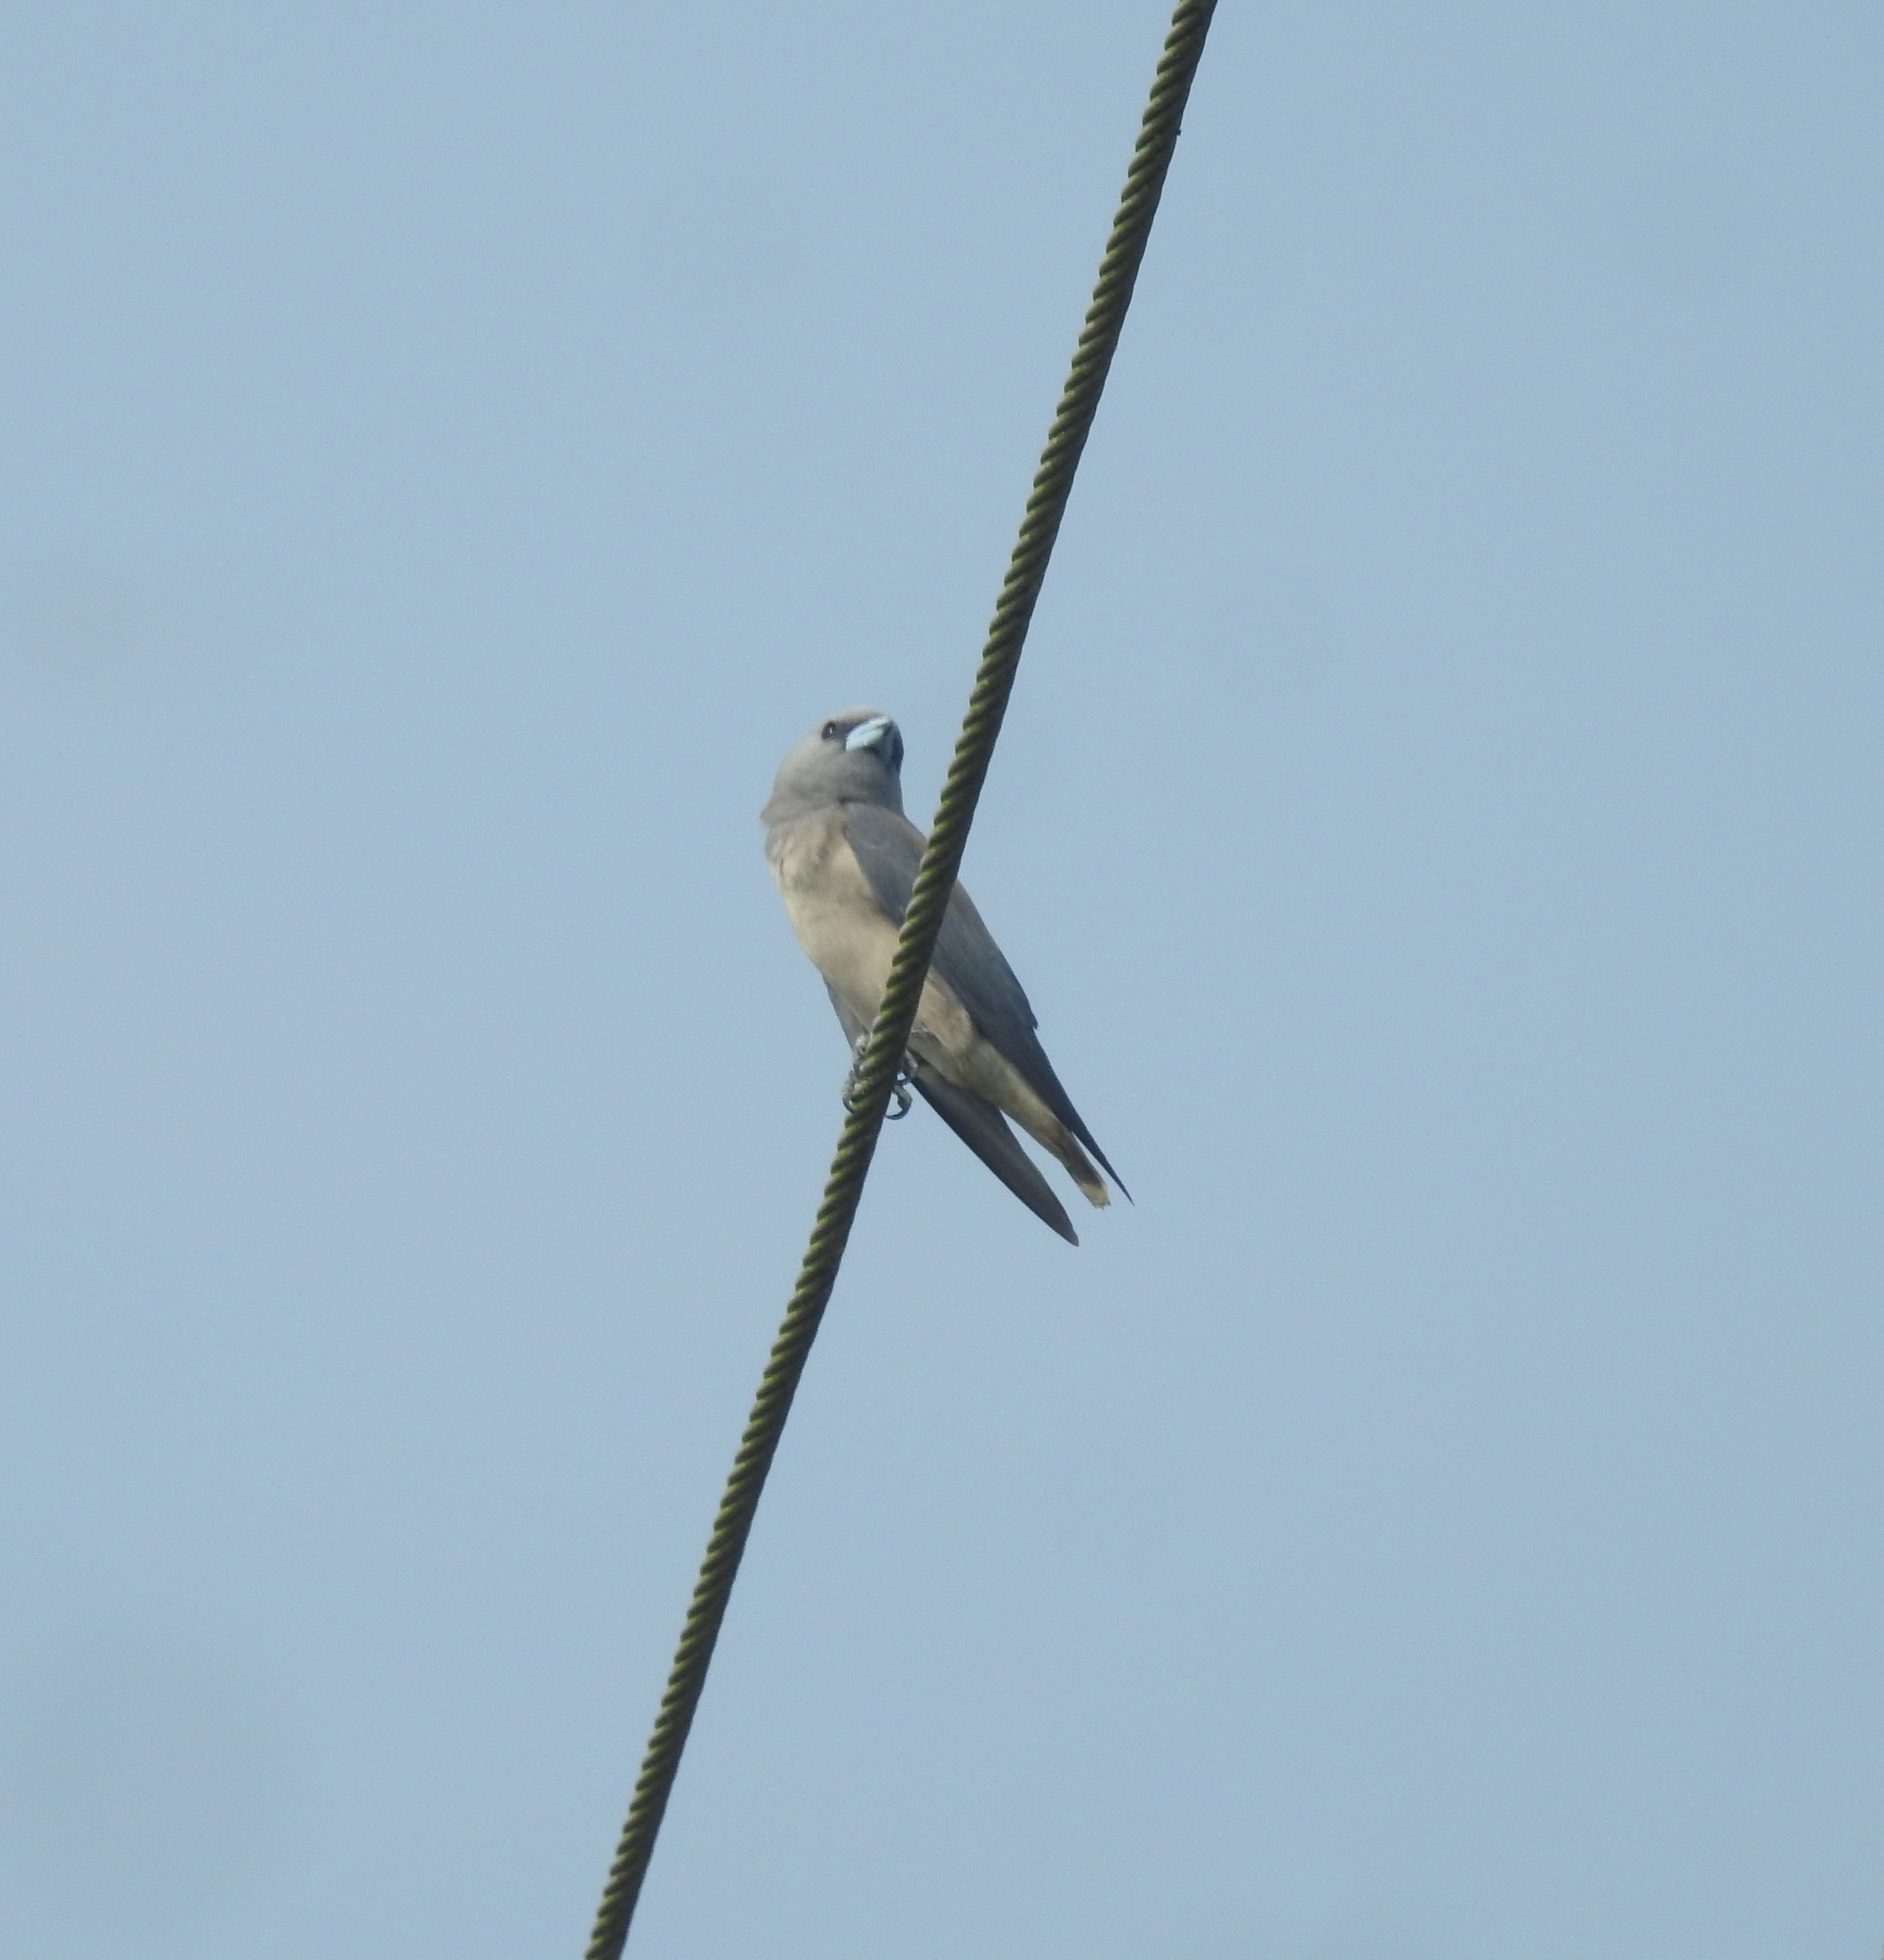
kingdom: Animalia
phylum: Chordata
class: Aves
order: Passeriformes
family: Artamidae
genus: Artamus
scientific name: Artamus fuscus
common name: Ashy woodswallow
